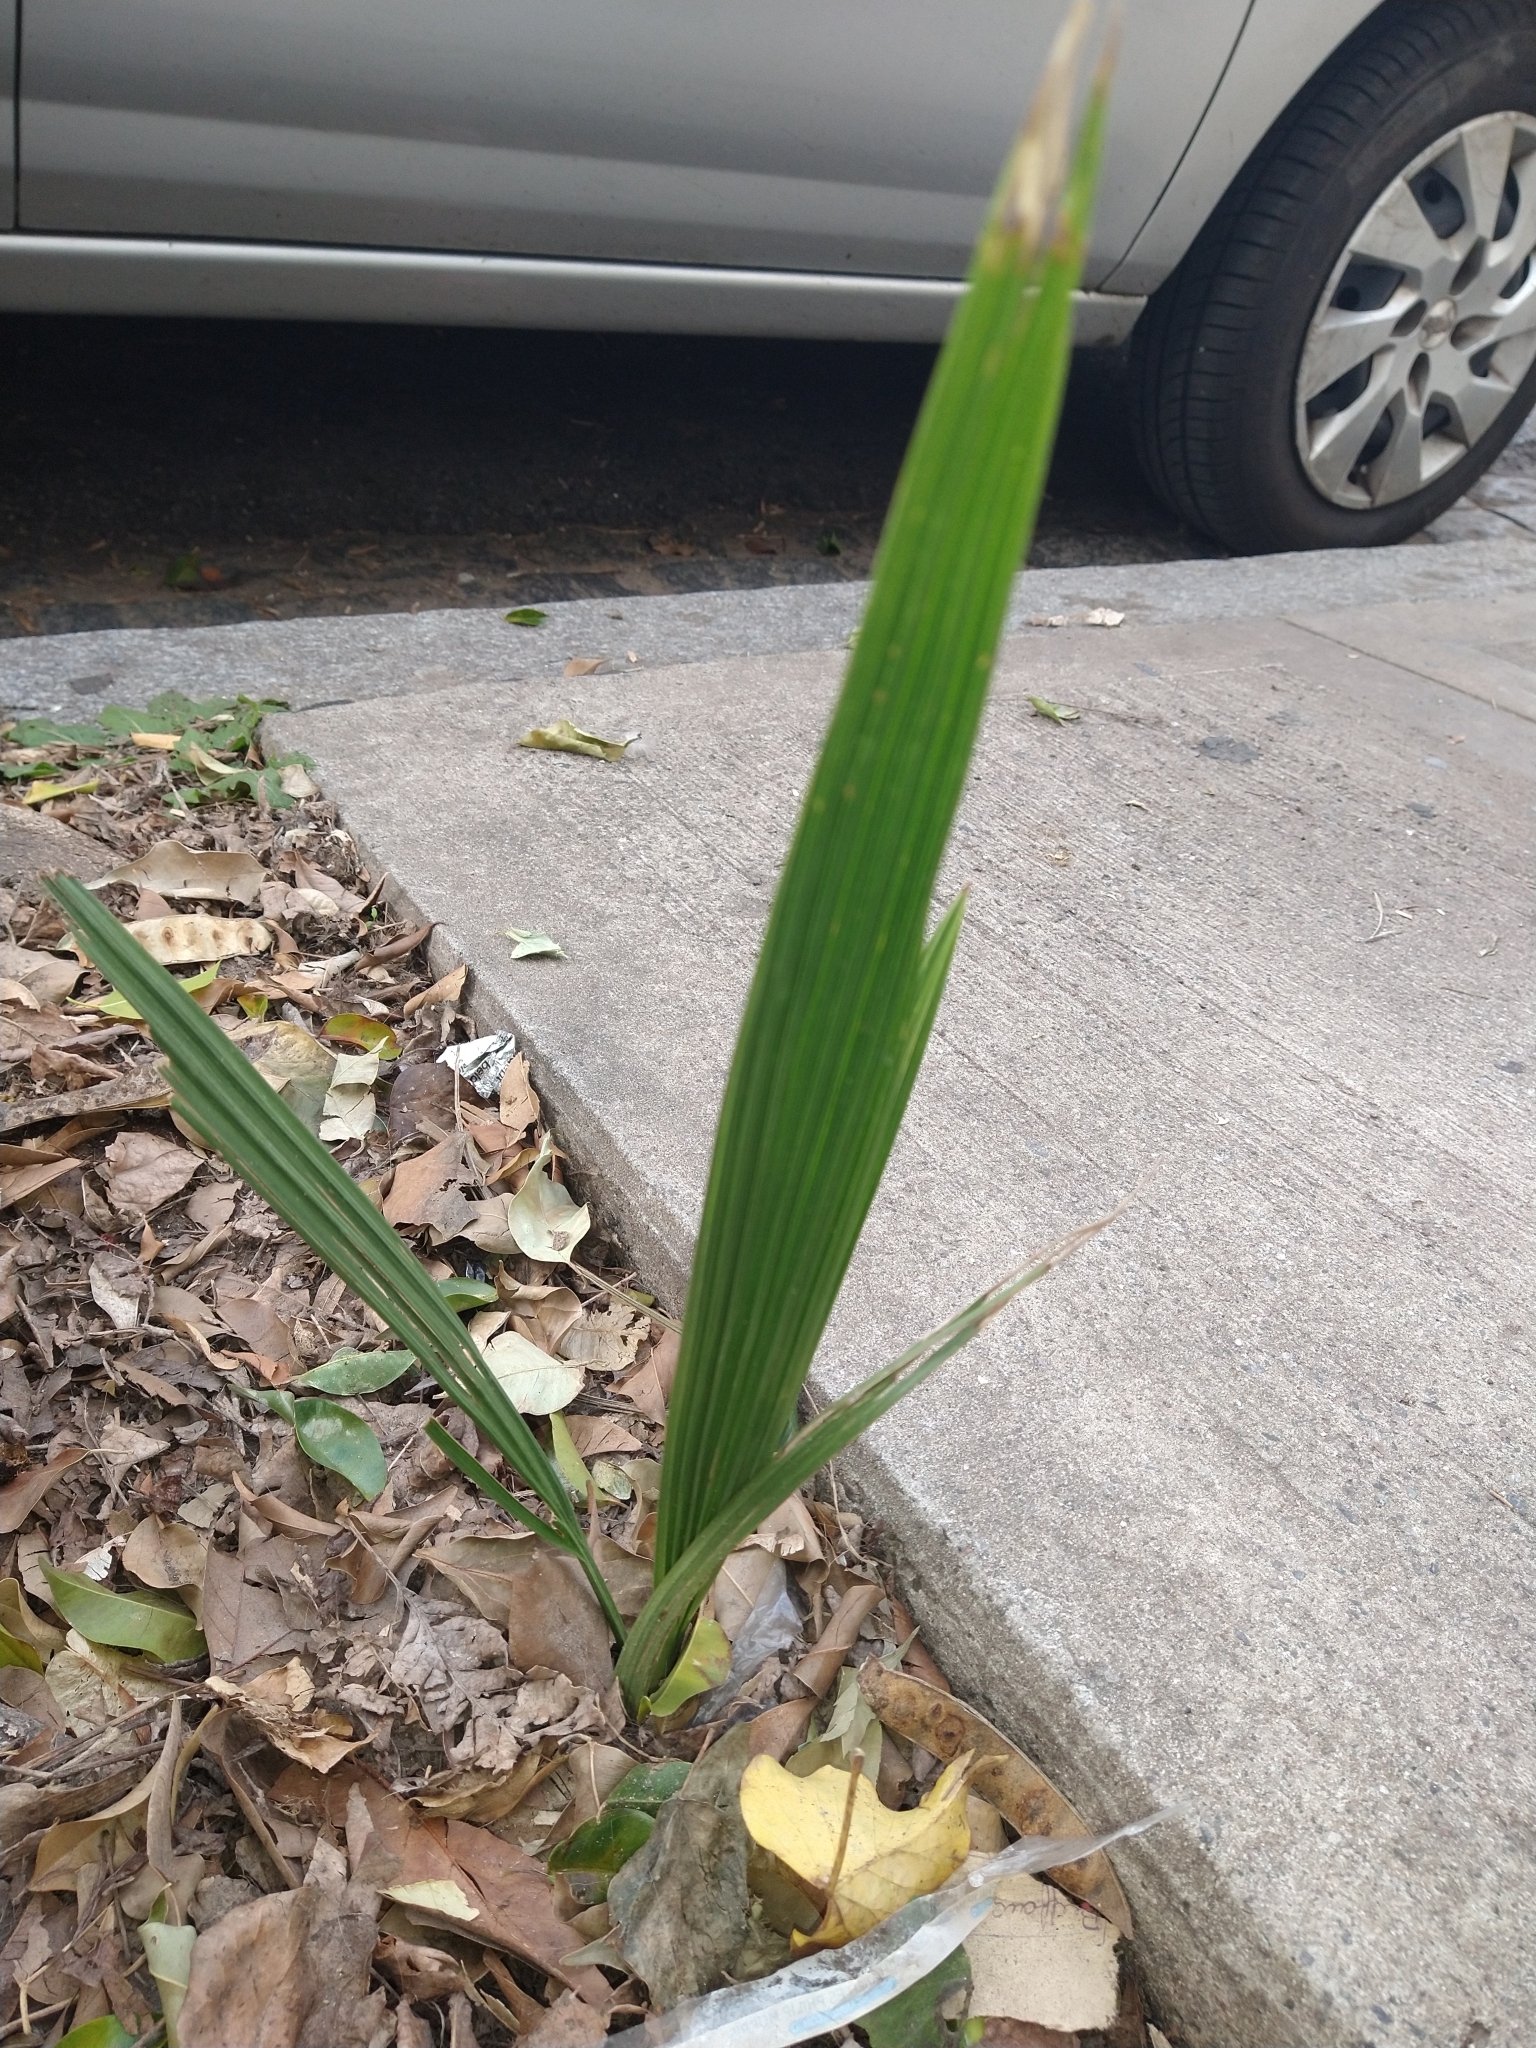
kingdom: Plantae
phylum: Tracheophyta
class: Liliopsida
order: Arecales
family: Arecaceae
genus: Phoenix
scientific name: Phoenix canariensis
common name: Canary island date palm
